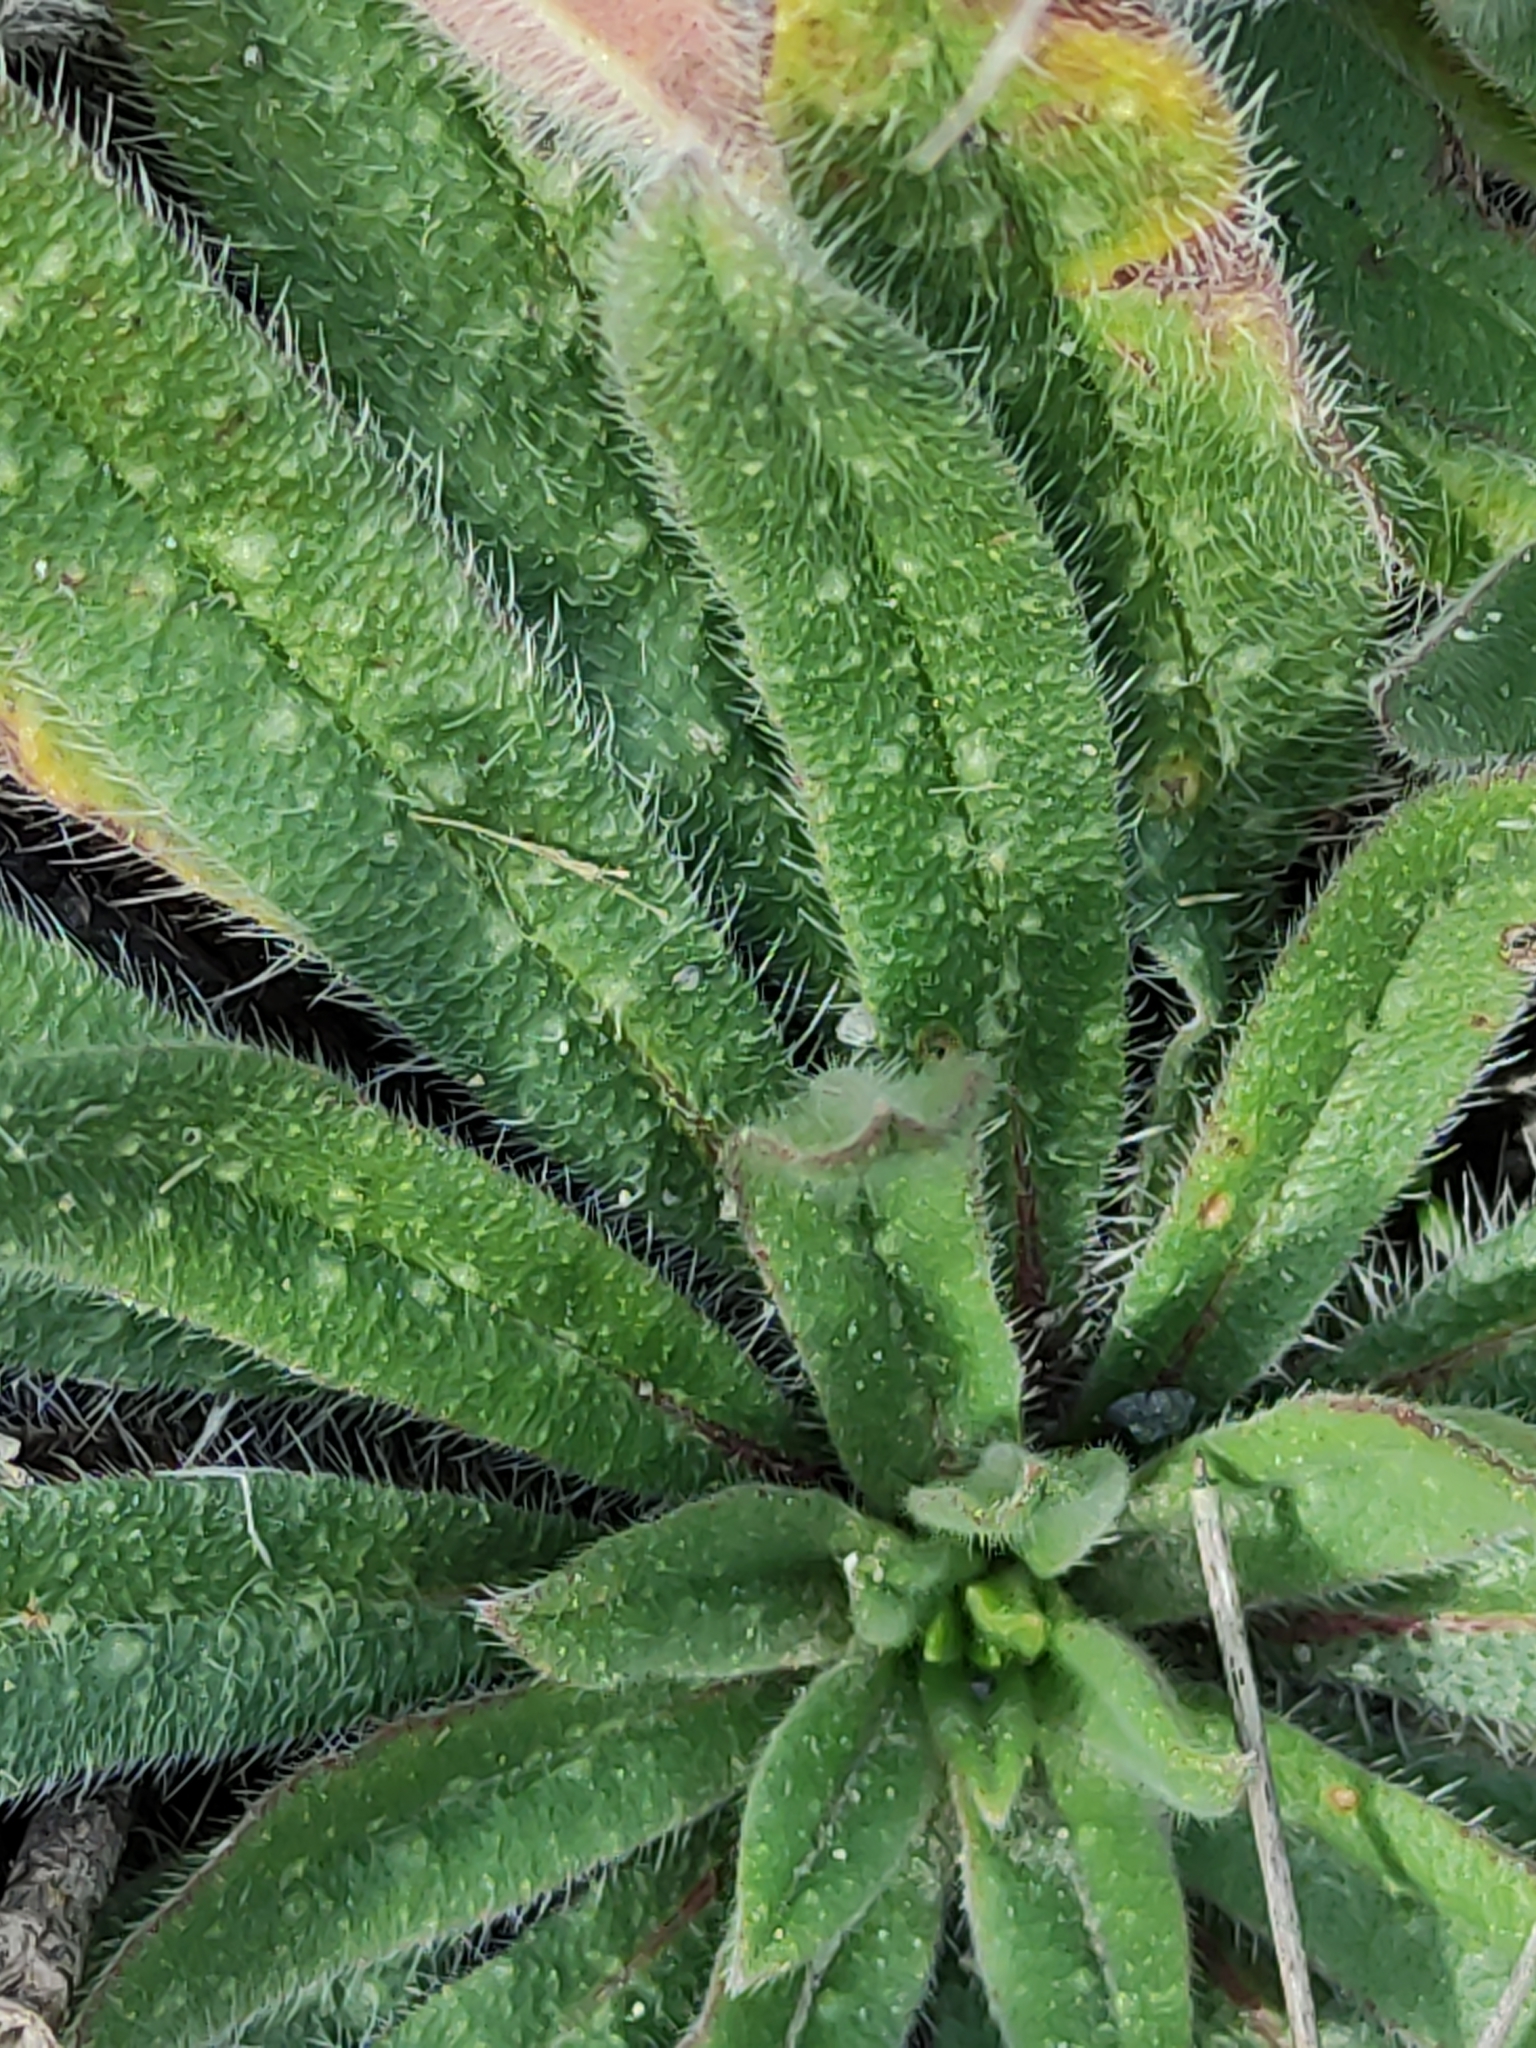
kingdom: Plantae
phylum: Tracheophyta
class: Magnoliopsida
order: Boraginales
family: Boraginaceae
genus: Echium
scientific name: Echium vulgare
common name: Common viper's bugloss
